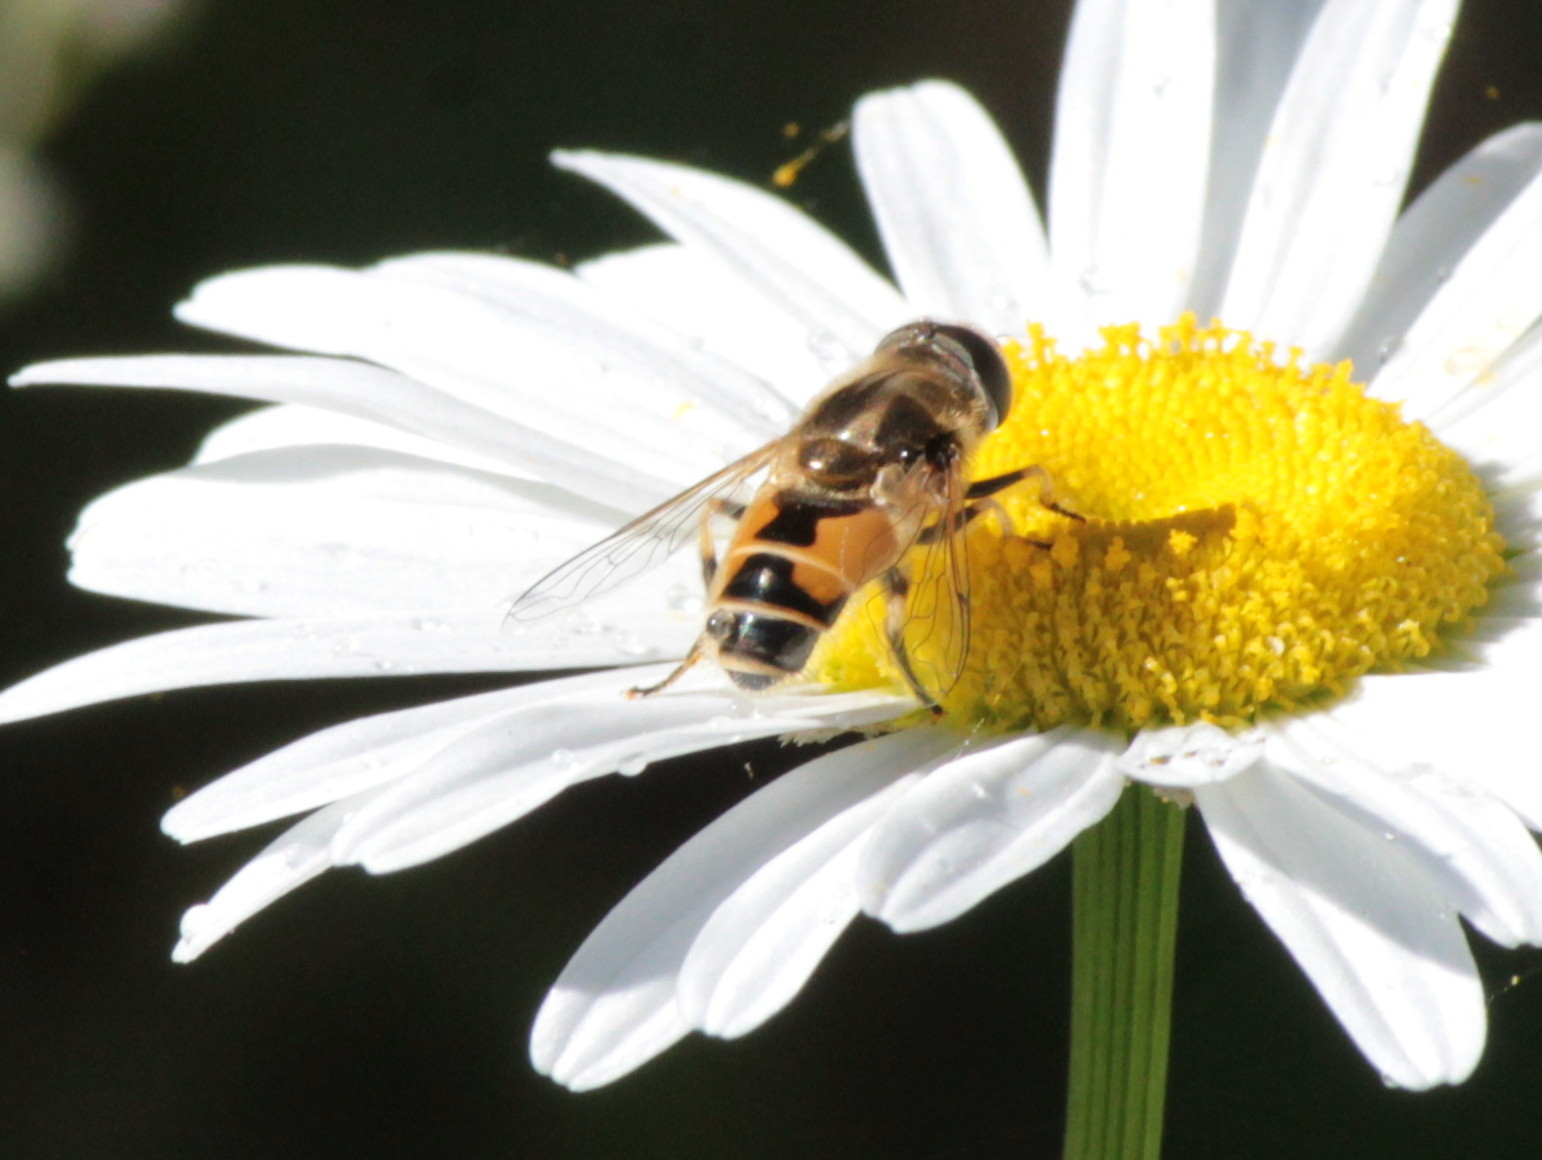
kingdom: Animalia
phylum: Arthropoda
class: Insecta
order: Diptera
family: Syrphidae
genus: Eristalis
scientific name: Eristalis arbustorum
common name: Hover fly
